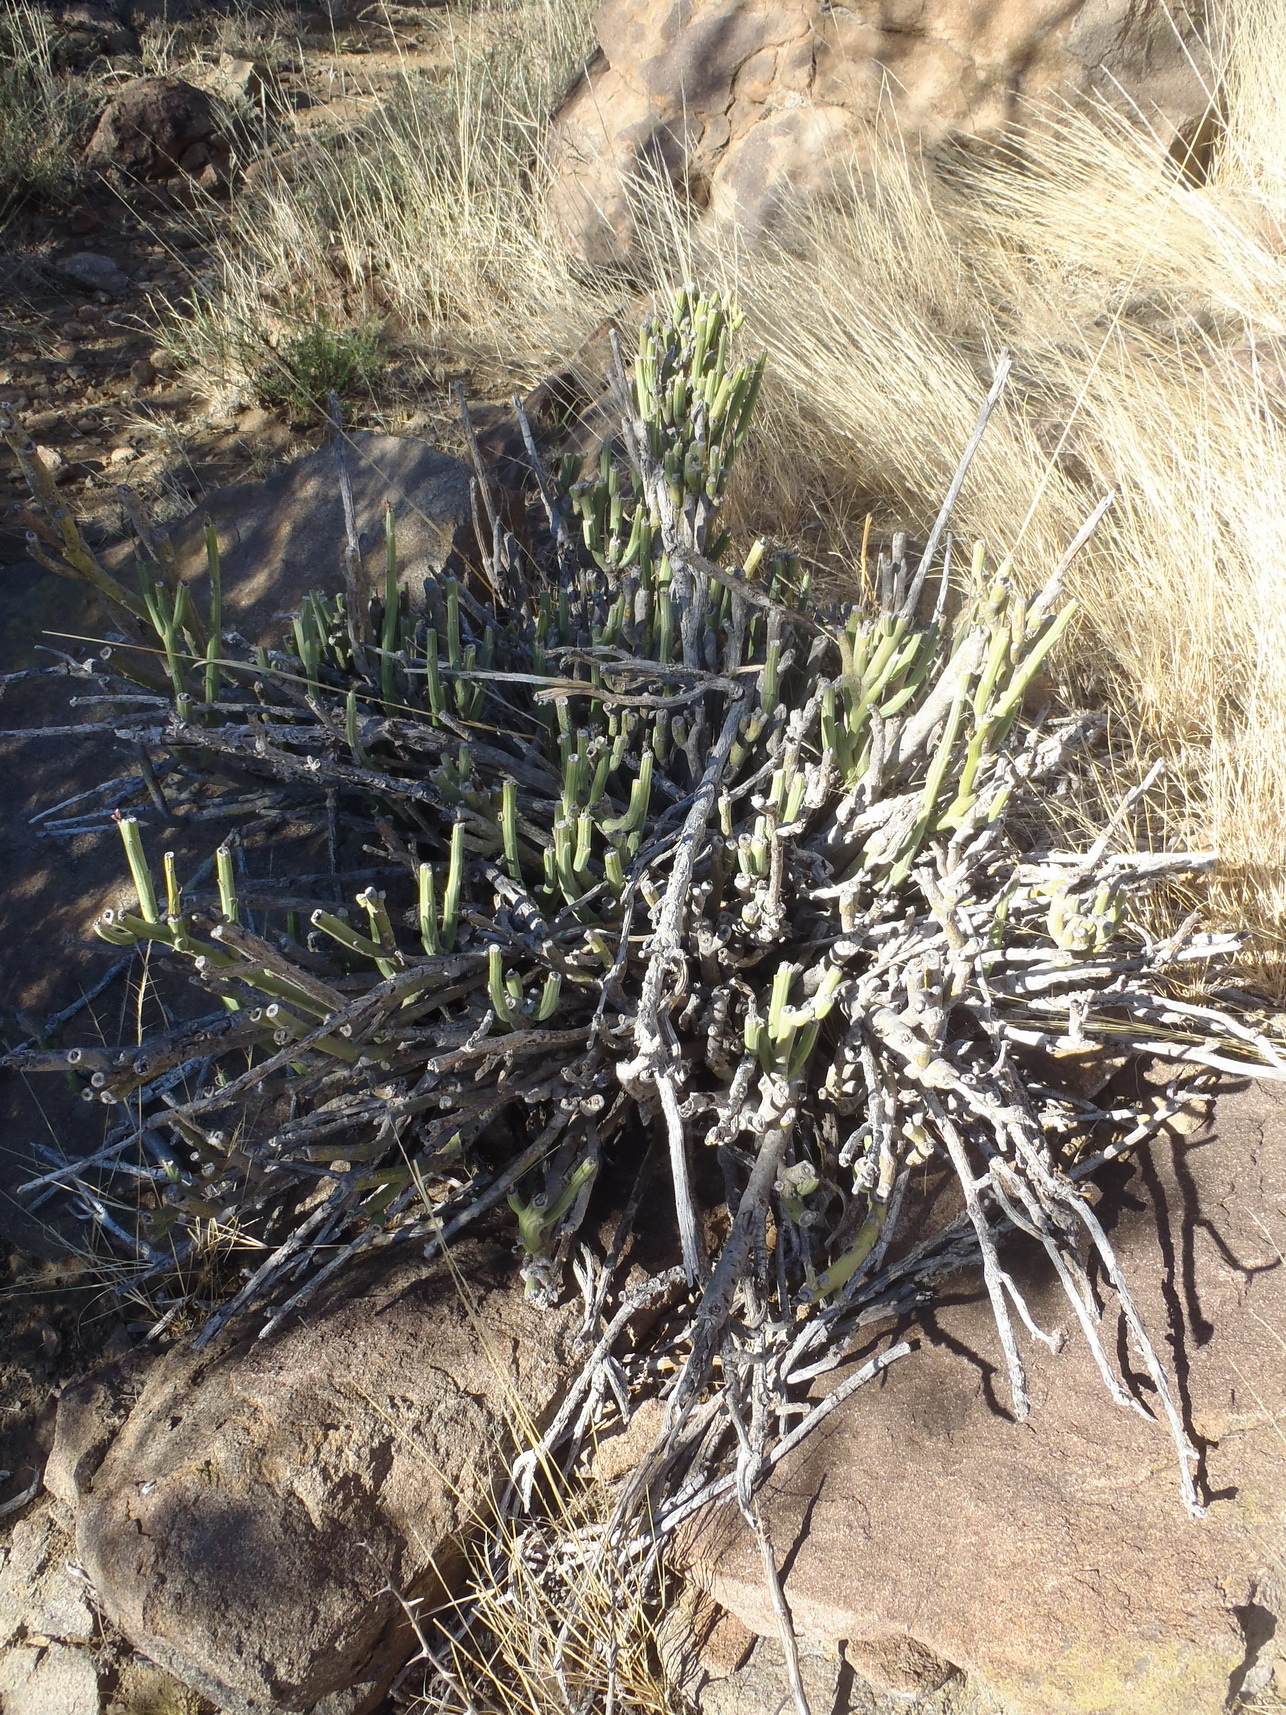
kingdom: Plantae
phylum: Tracheophyta
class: Magnoliopsida
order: Asterales
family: Asteraceae
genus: Curio
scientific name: Curio avasimontanus
